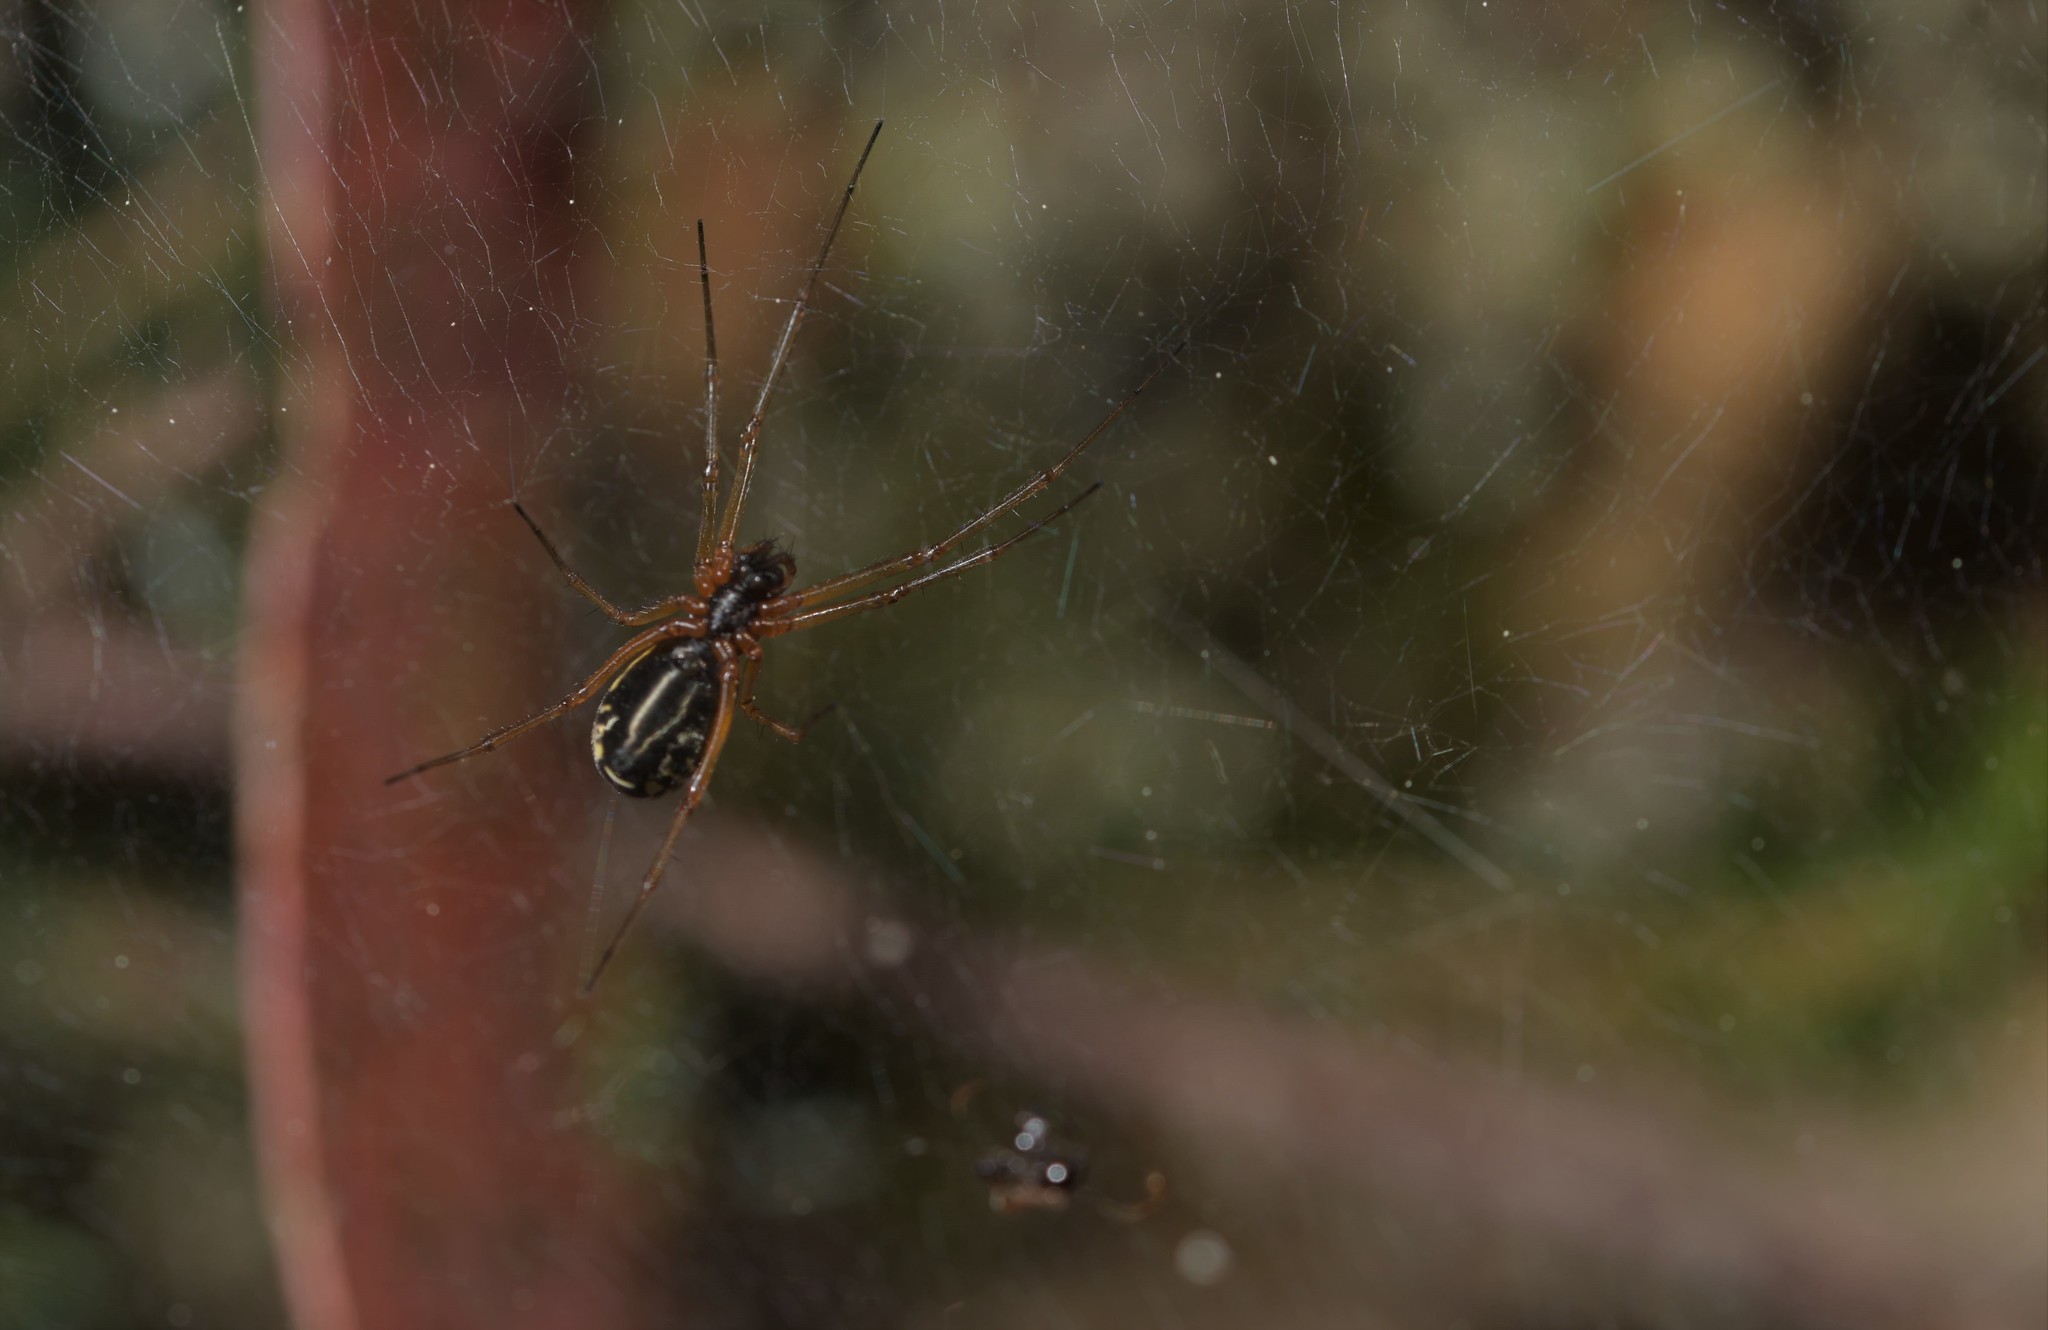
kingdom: Animalia
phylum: Arthropoda
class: Arachnida
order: Araneae
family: Linyphiidae
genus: Frontinellina
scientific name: Frontinellina frutetorum
